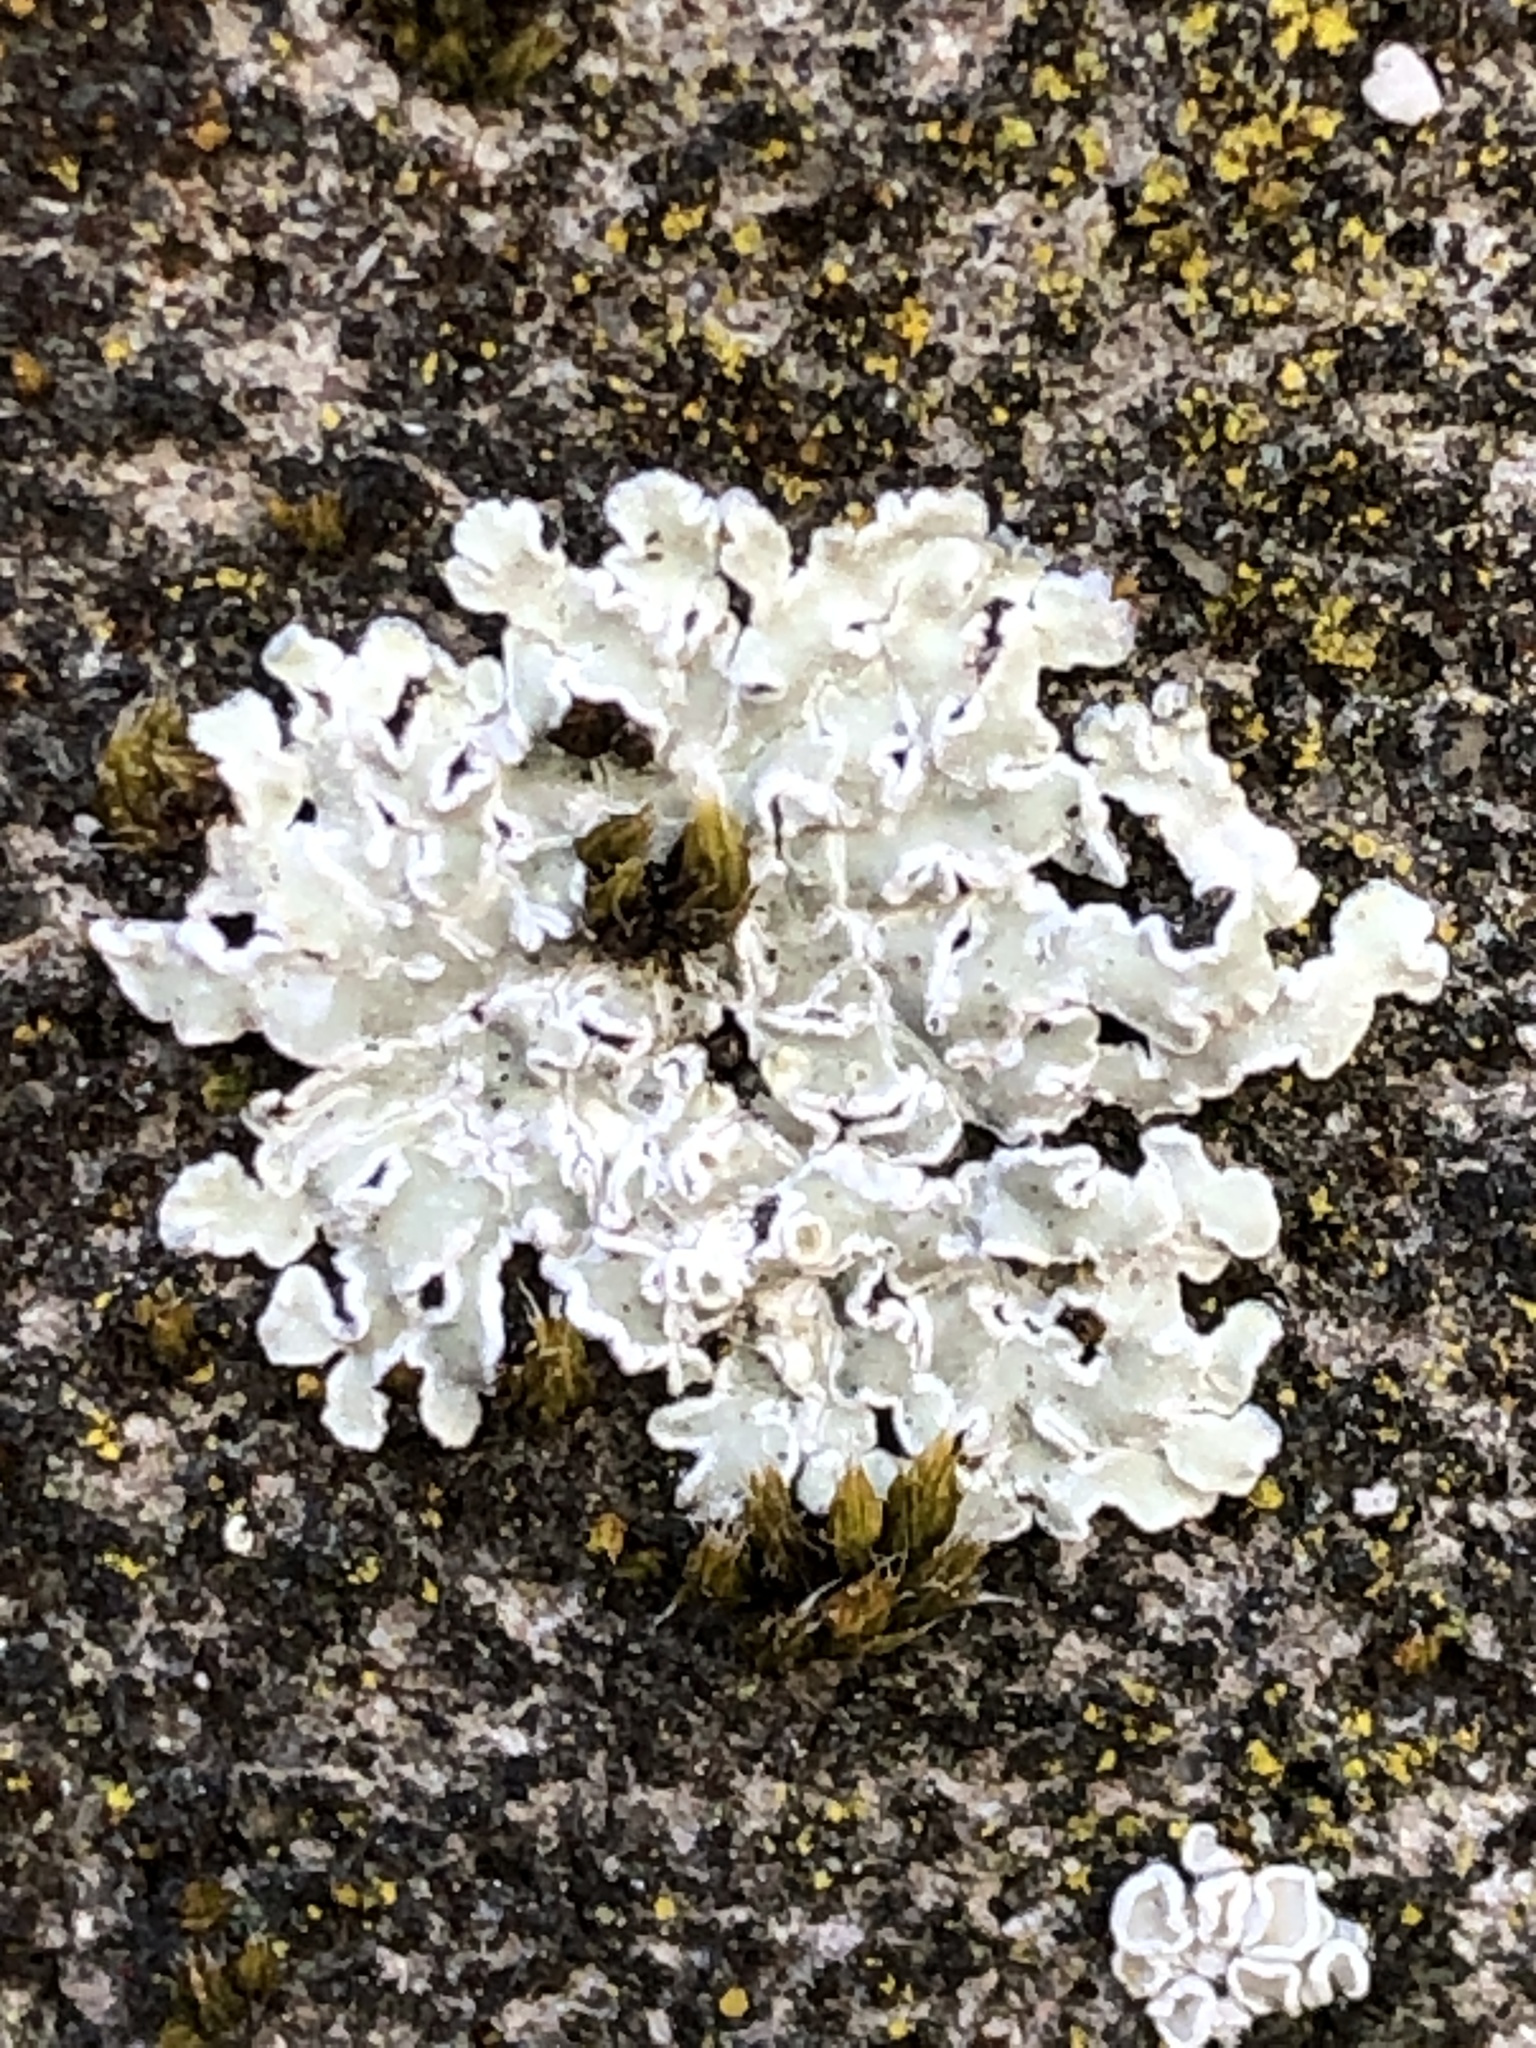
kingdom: Fungi
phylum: Ascomycota
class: Lecanoromycetes
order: Lecanorales
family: Lecanoraceae
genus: Protoparmeliopsis
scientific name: Protoparmeliopsis muralis
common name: Stonewall rim lichen
